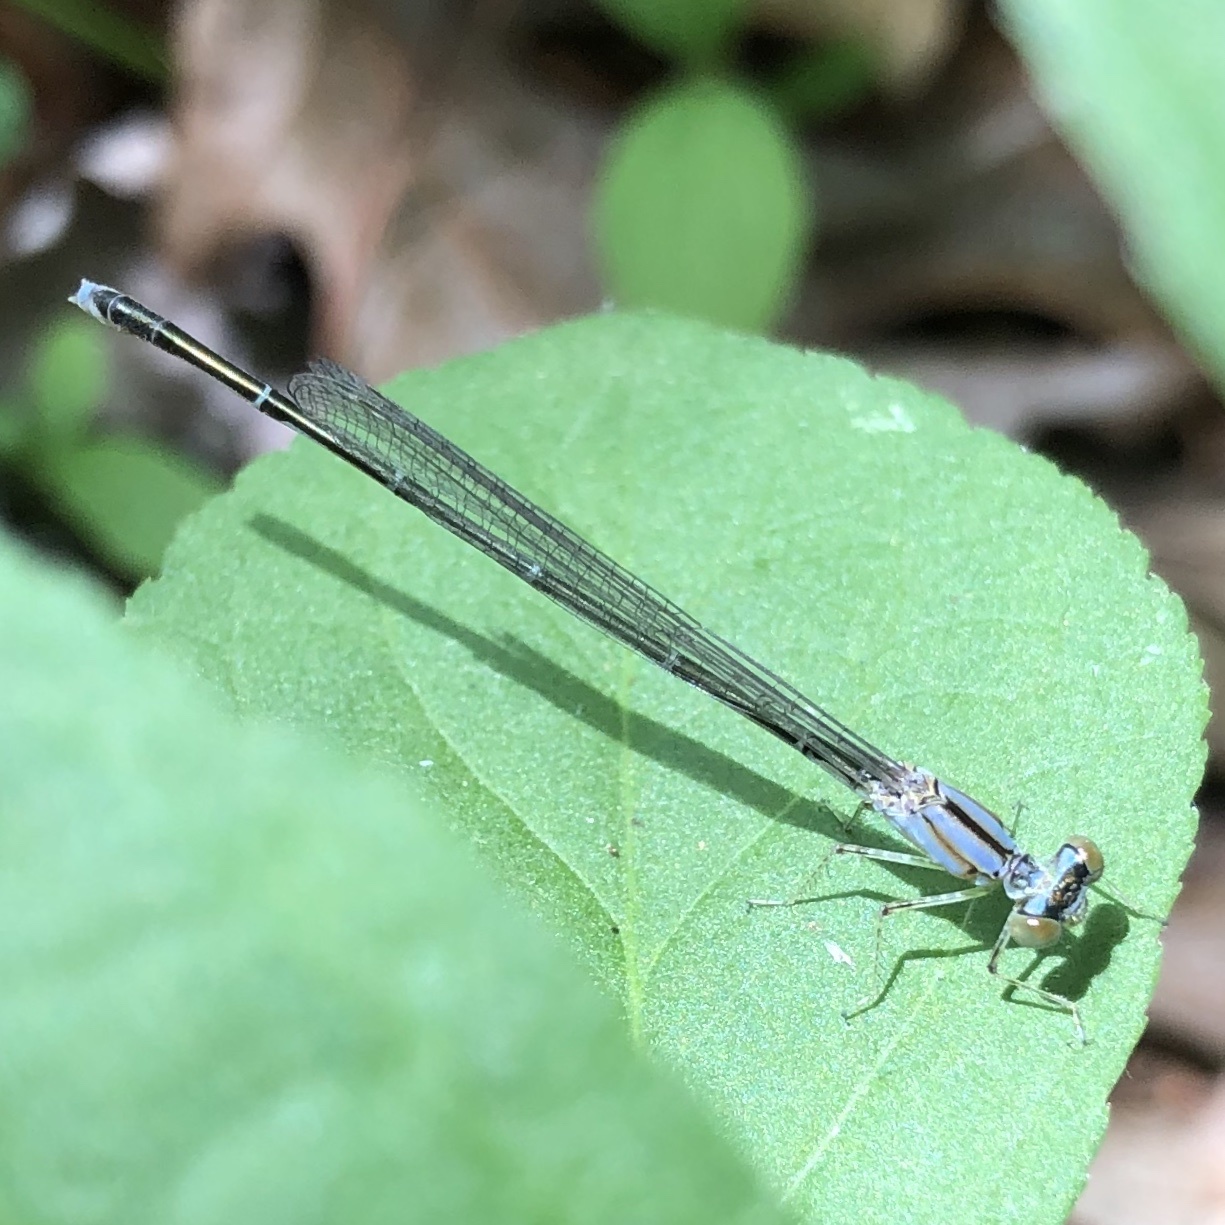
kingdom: Animalia
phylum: Arthropoda
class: Insecta
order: Odonata
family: Coenagrionidae
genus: Enallagma
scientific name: Enallagma vesperum
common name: Vesper bluet
